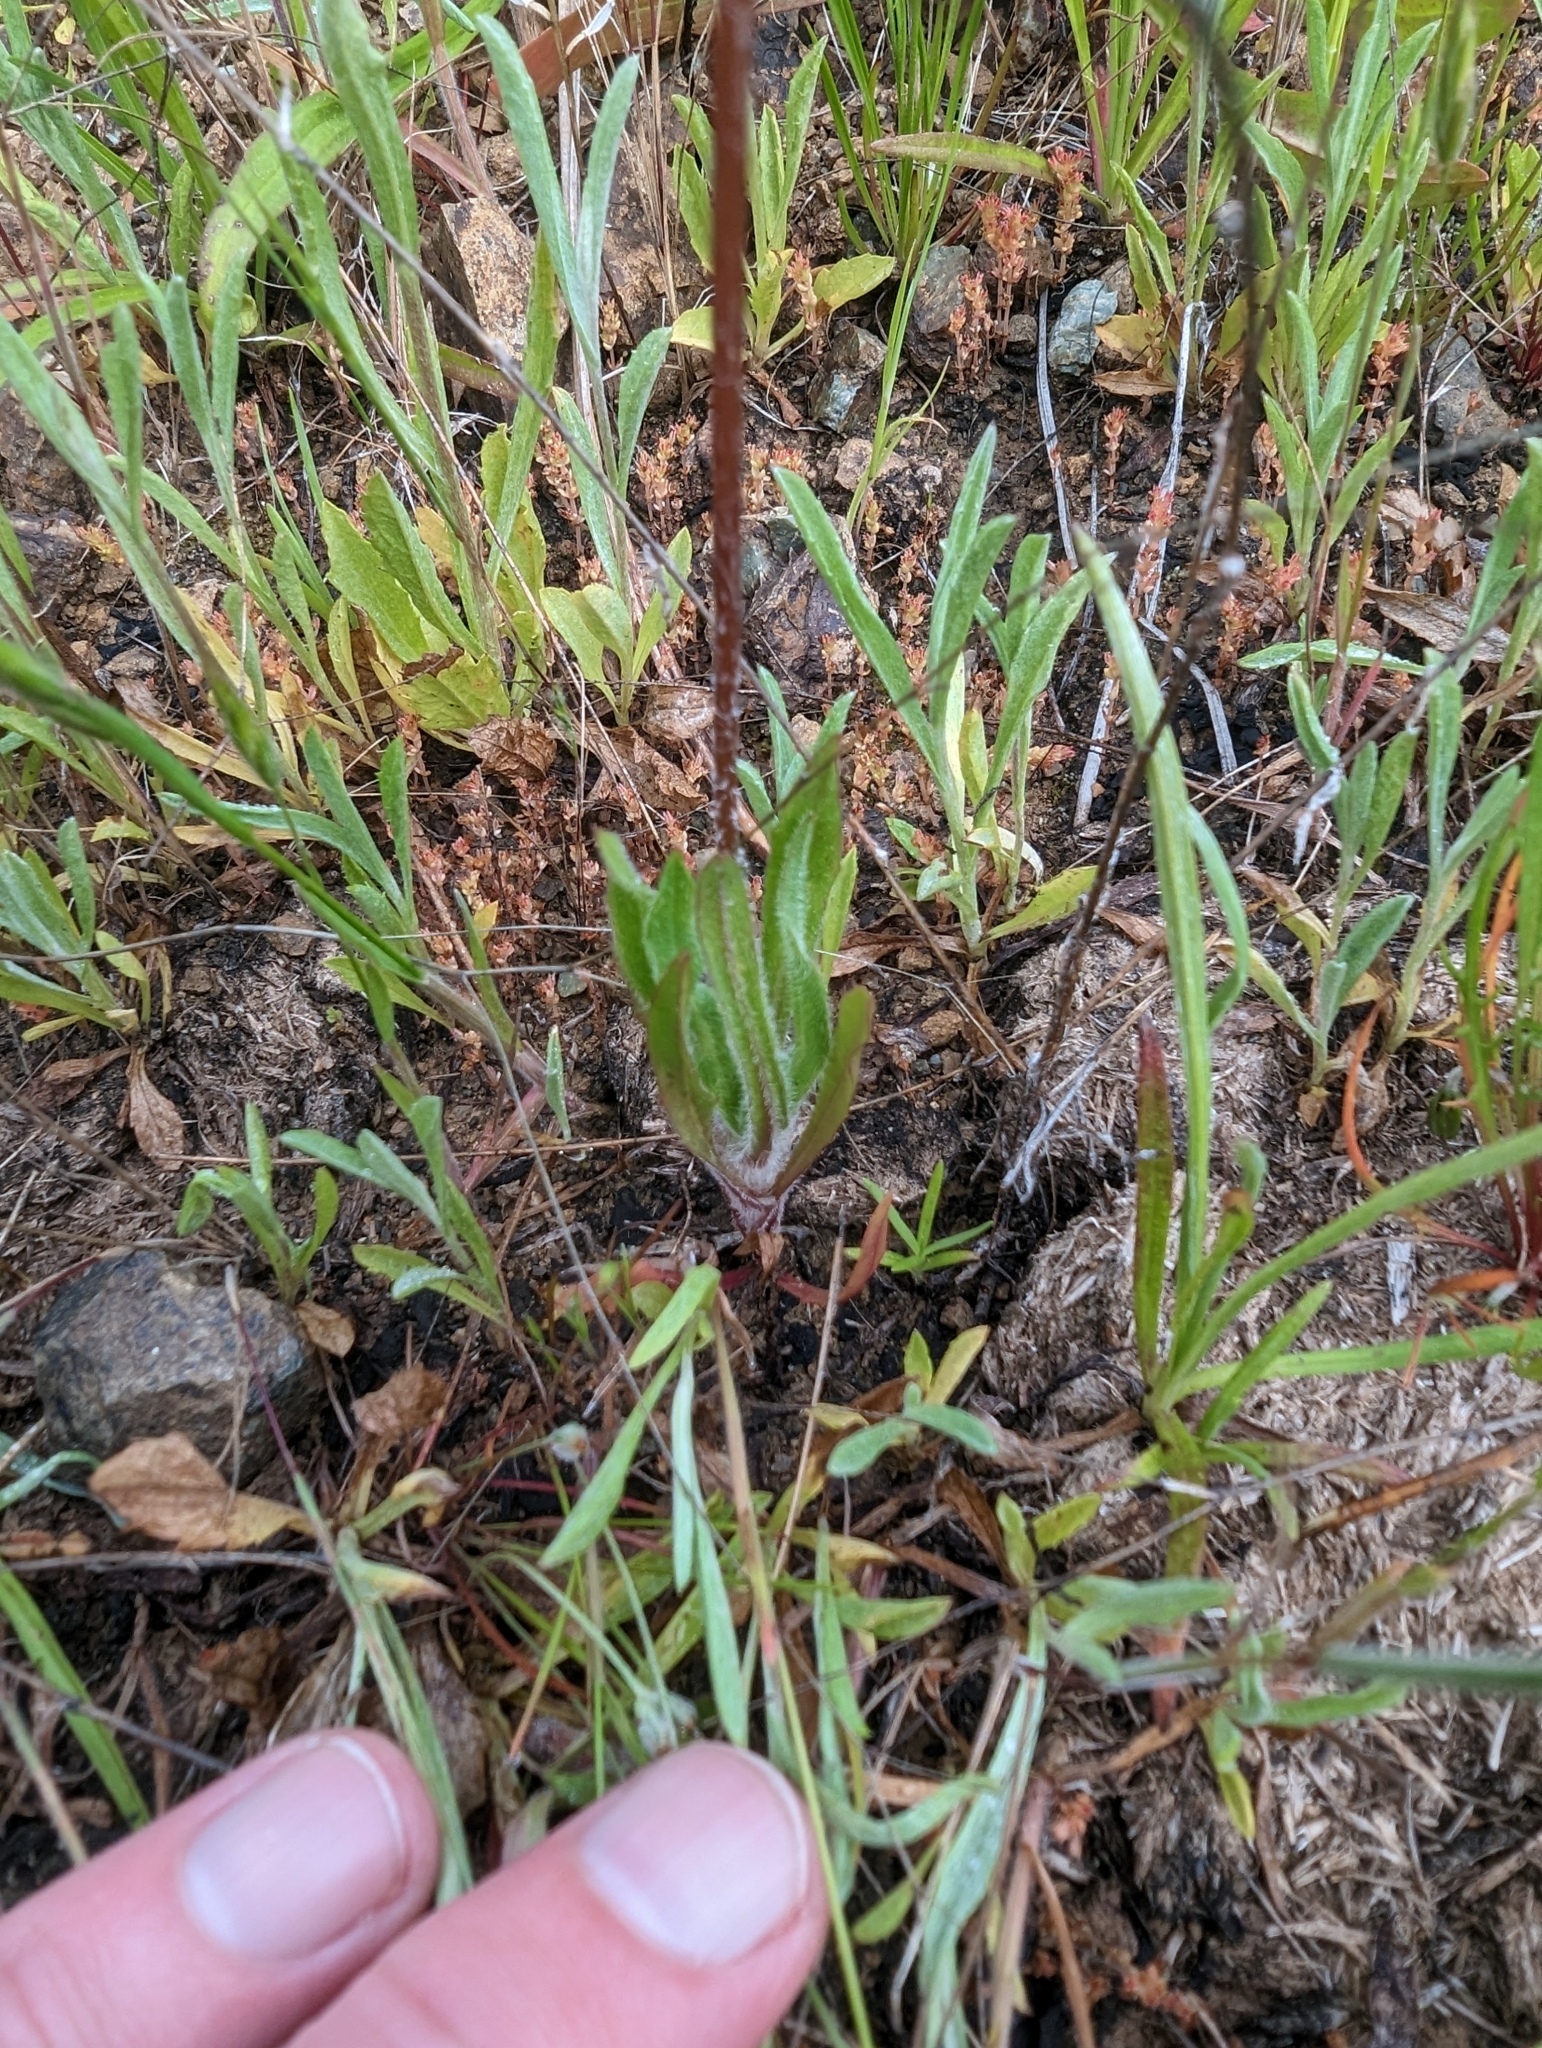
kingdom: Plantae
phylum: Tracheophyta
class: Magnoliopsida
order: Asterales
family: Asteraceae
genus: Agoseris
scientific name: Agoseris heterophylla
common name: Annual agoseris
